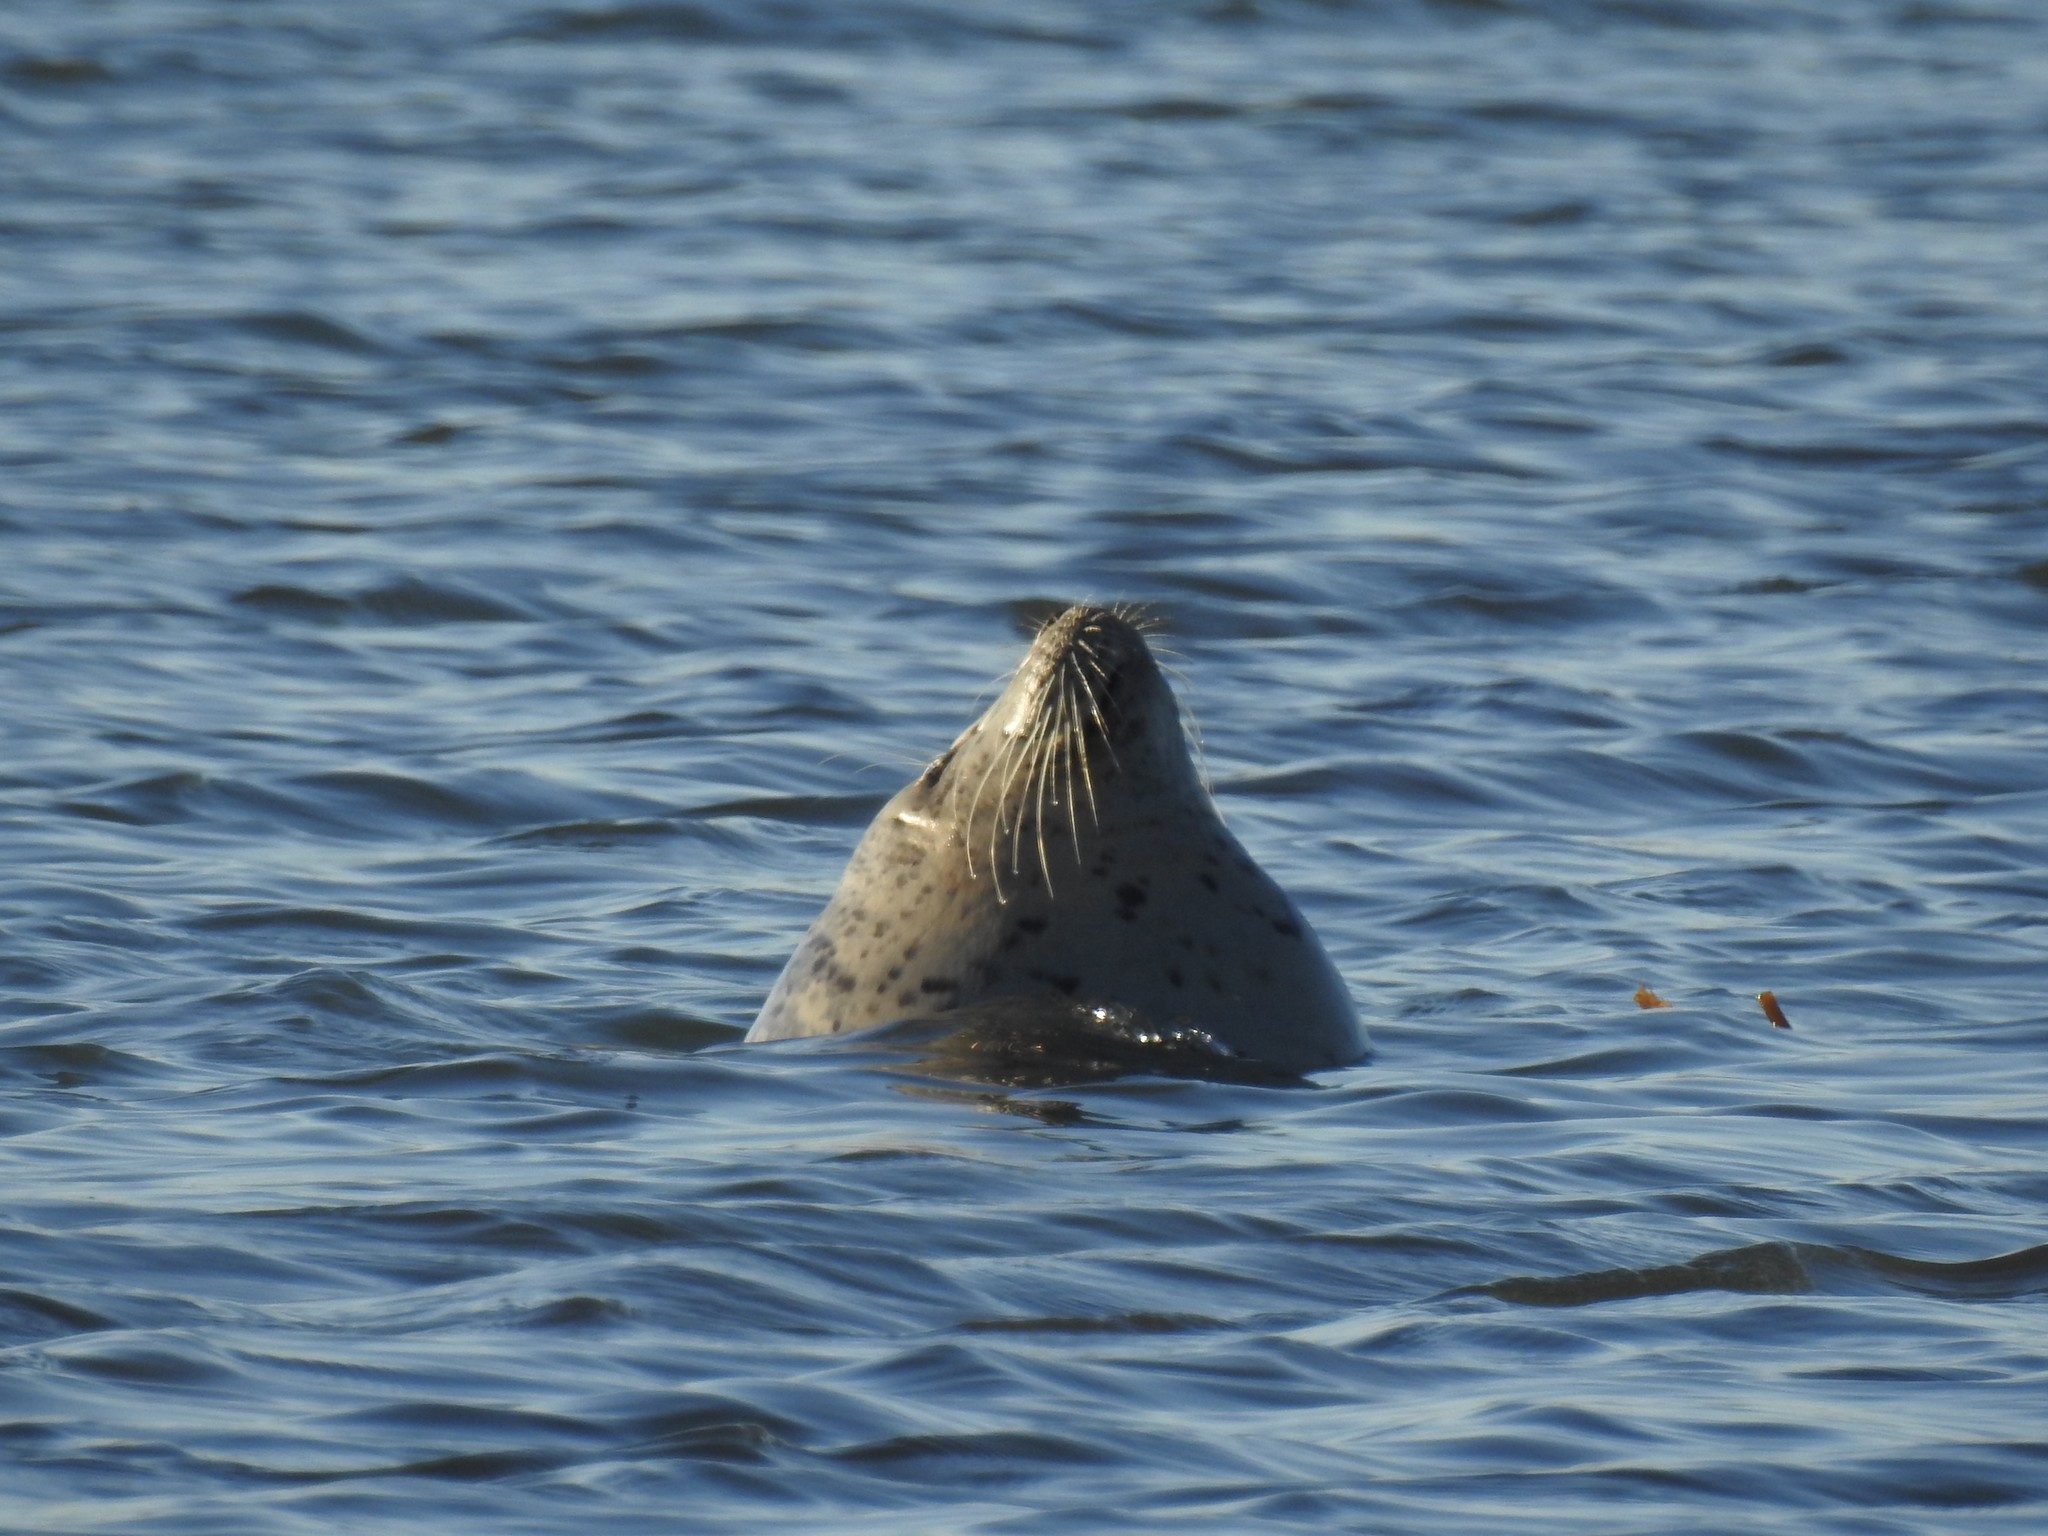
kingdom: Animalia
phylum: Chordata
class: Mammalia
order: Carnivora
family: Phocidae
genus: Phoca
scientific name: Phoca vitulina
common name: Harbor seal
